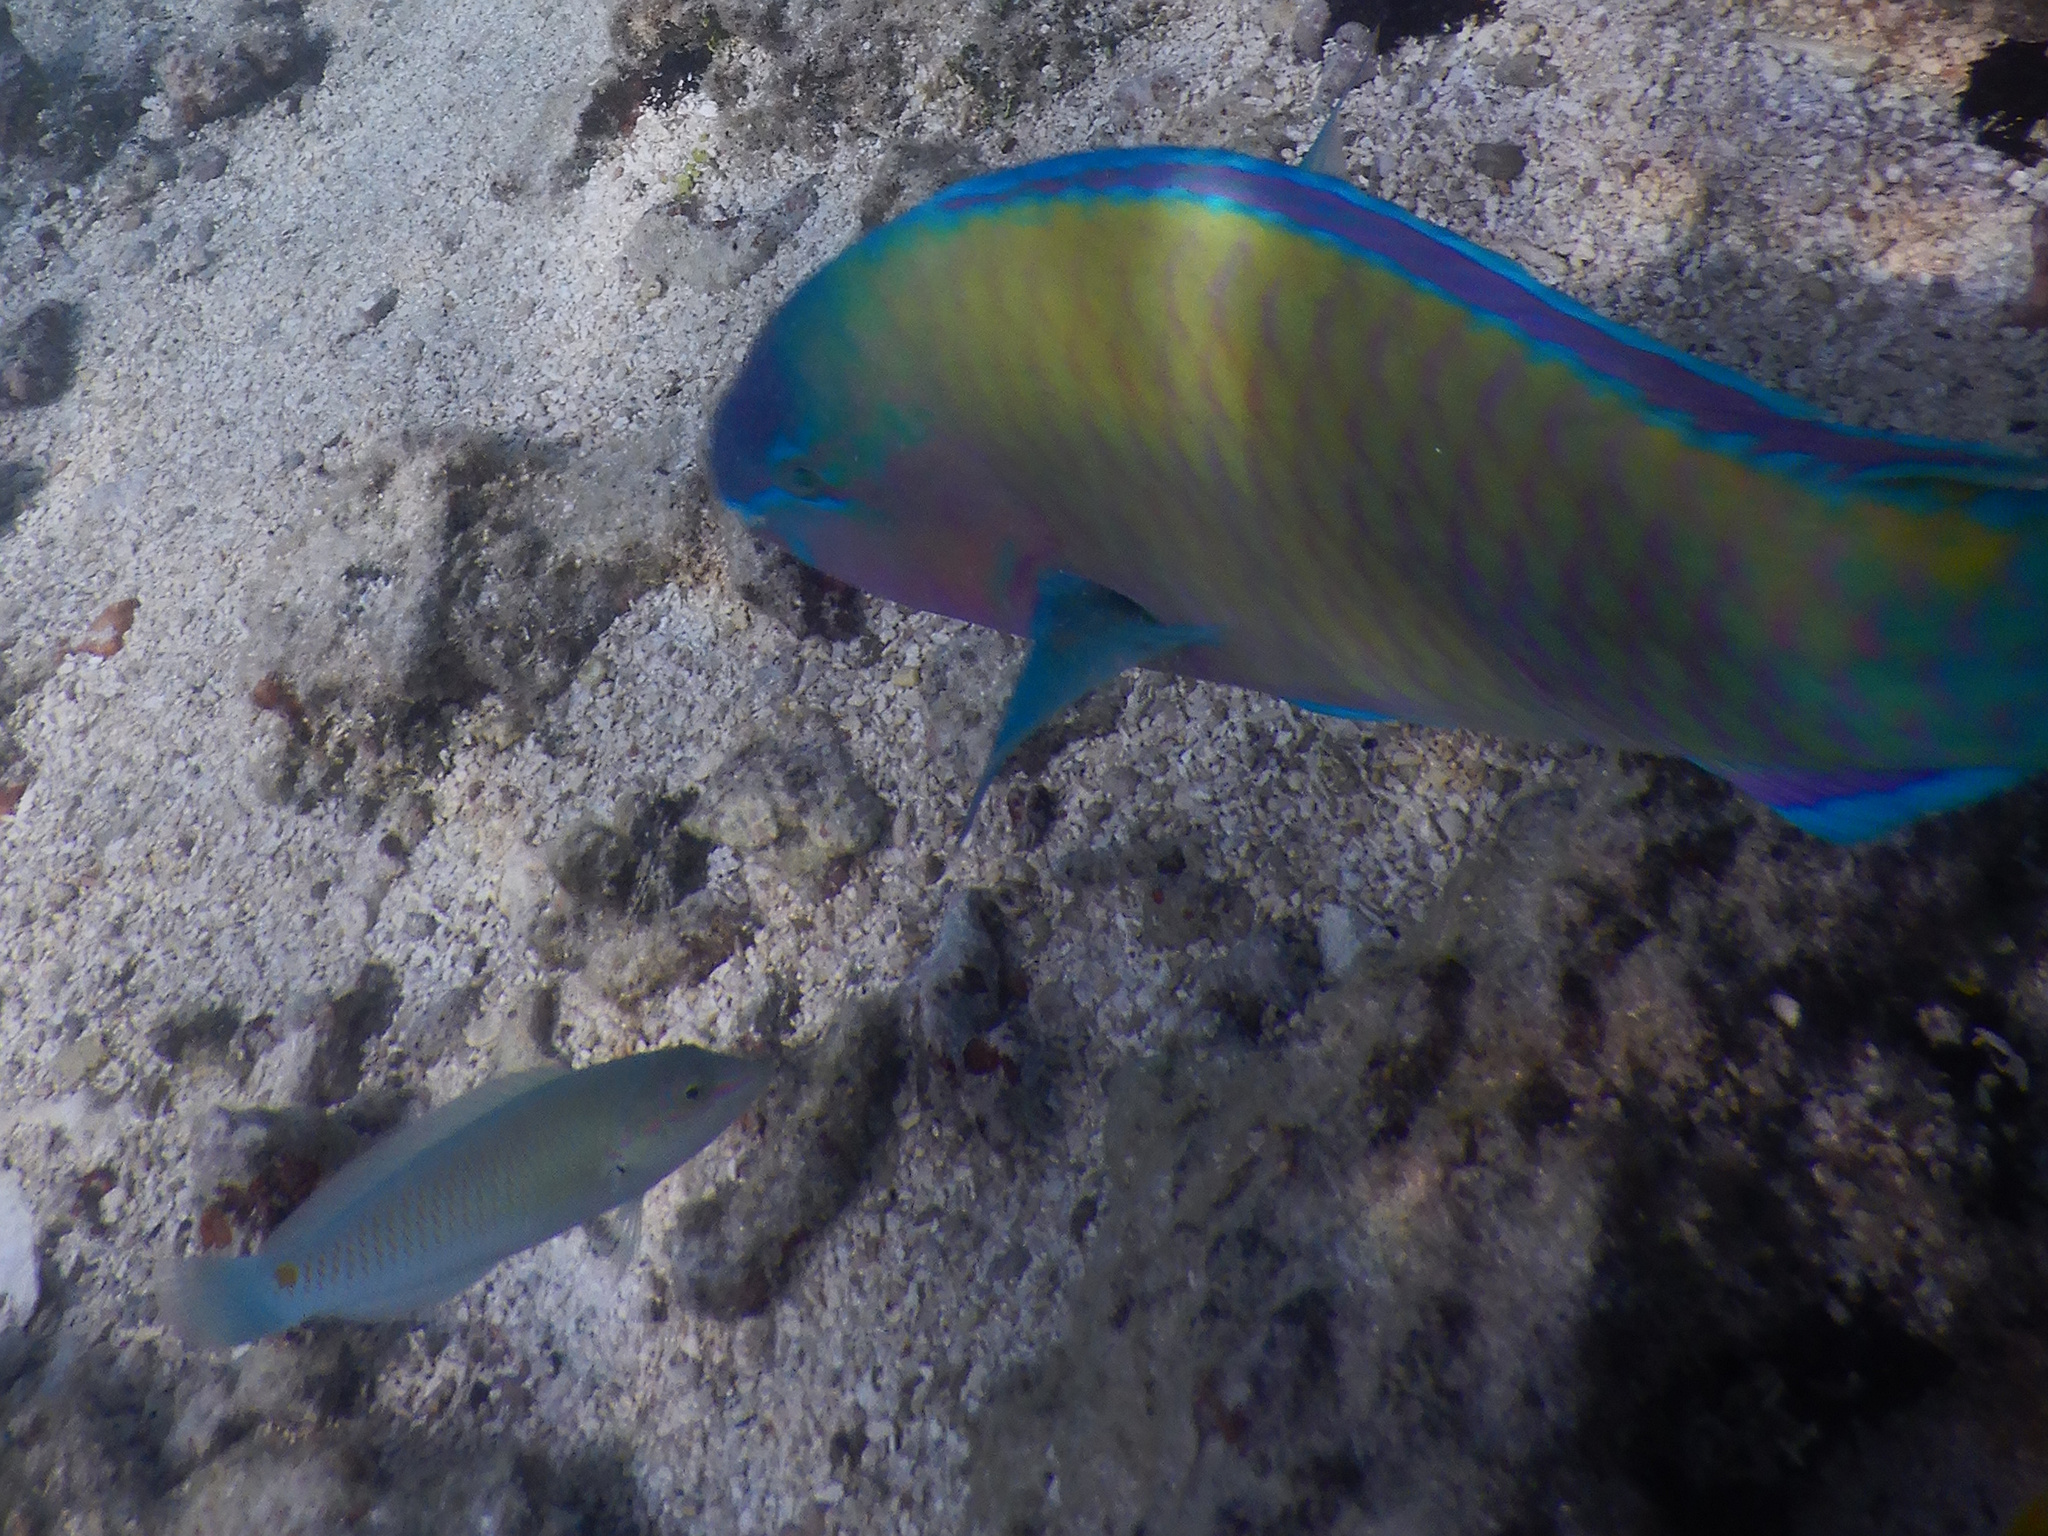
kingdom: Animalia
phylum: Chordata
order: Perciformes
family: Scaridae
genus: Scarus
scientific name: Scarus psittacus
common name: Palenose parrotfish
